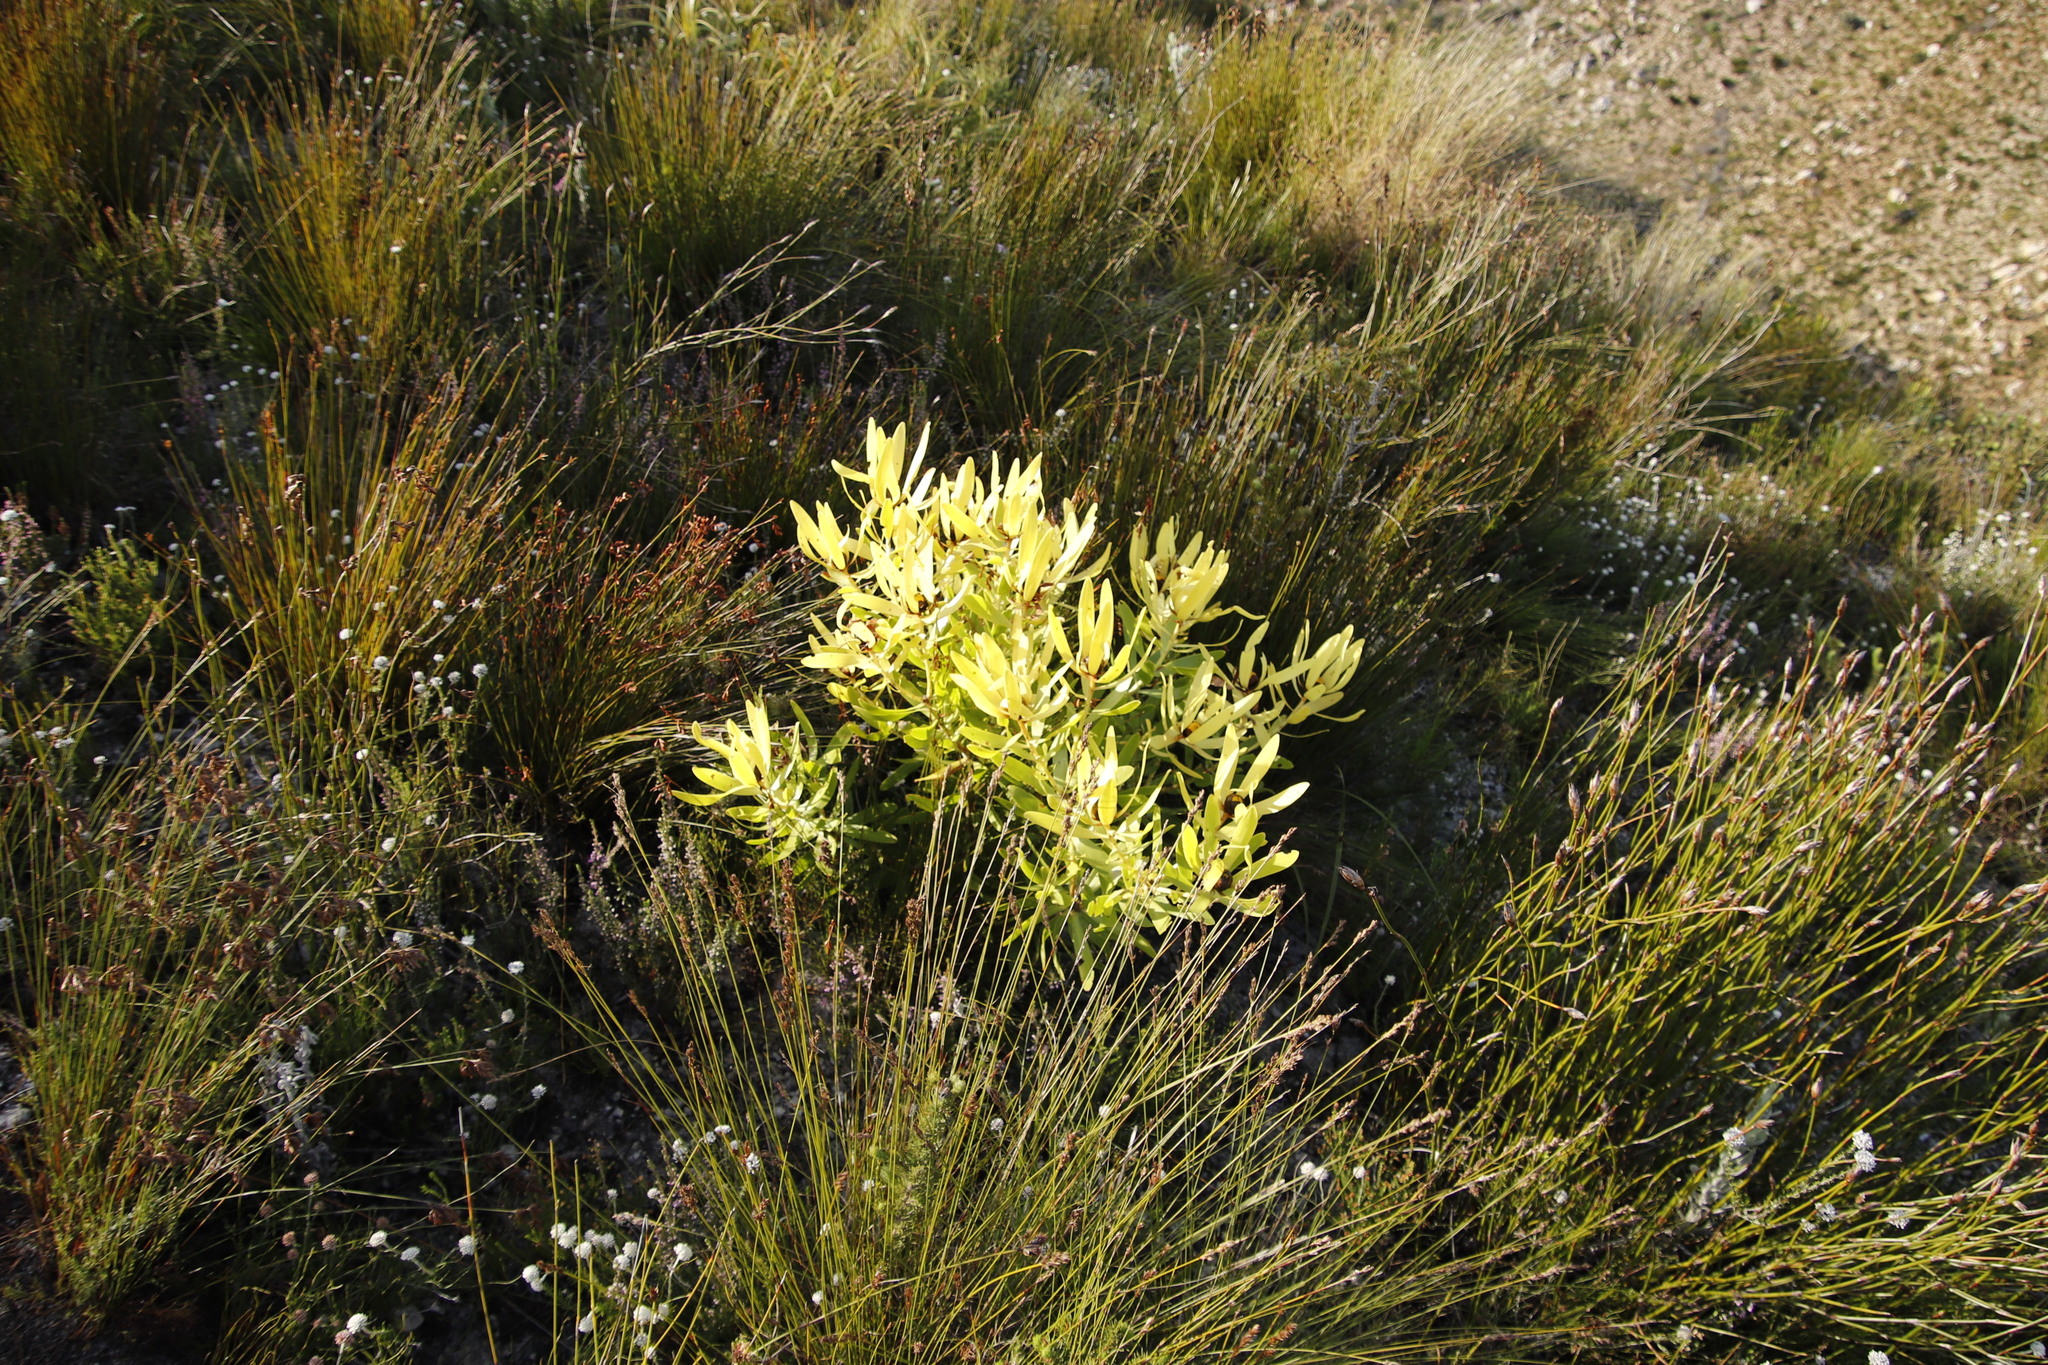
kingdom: Plantae
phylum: Tracheophyta
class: Magnoliopsida
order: Proteales
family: Proteaceae
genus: Leucadendron
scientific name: Leucadendron microcephalum
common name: Oilbract conebush
